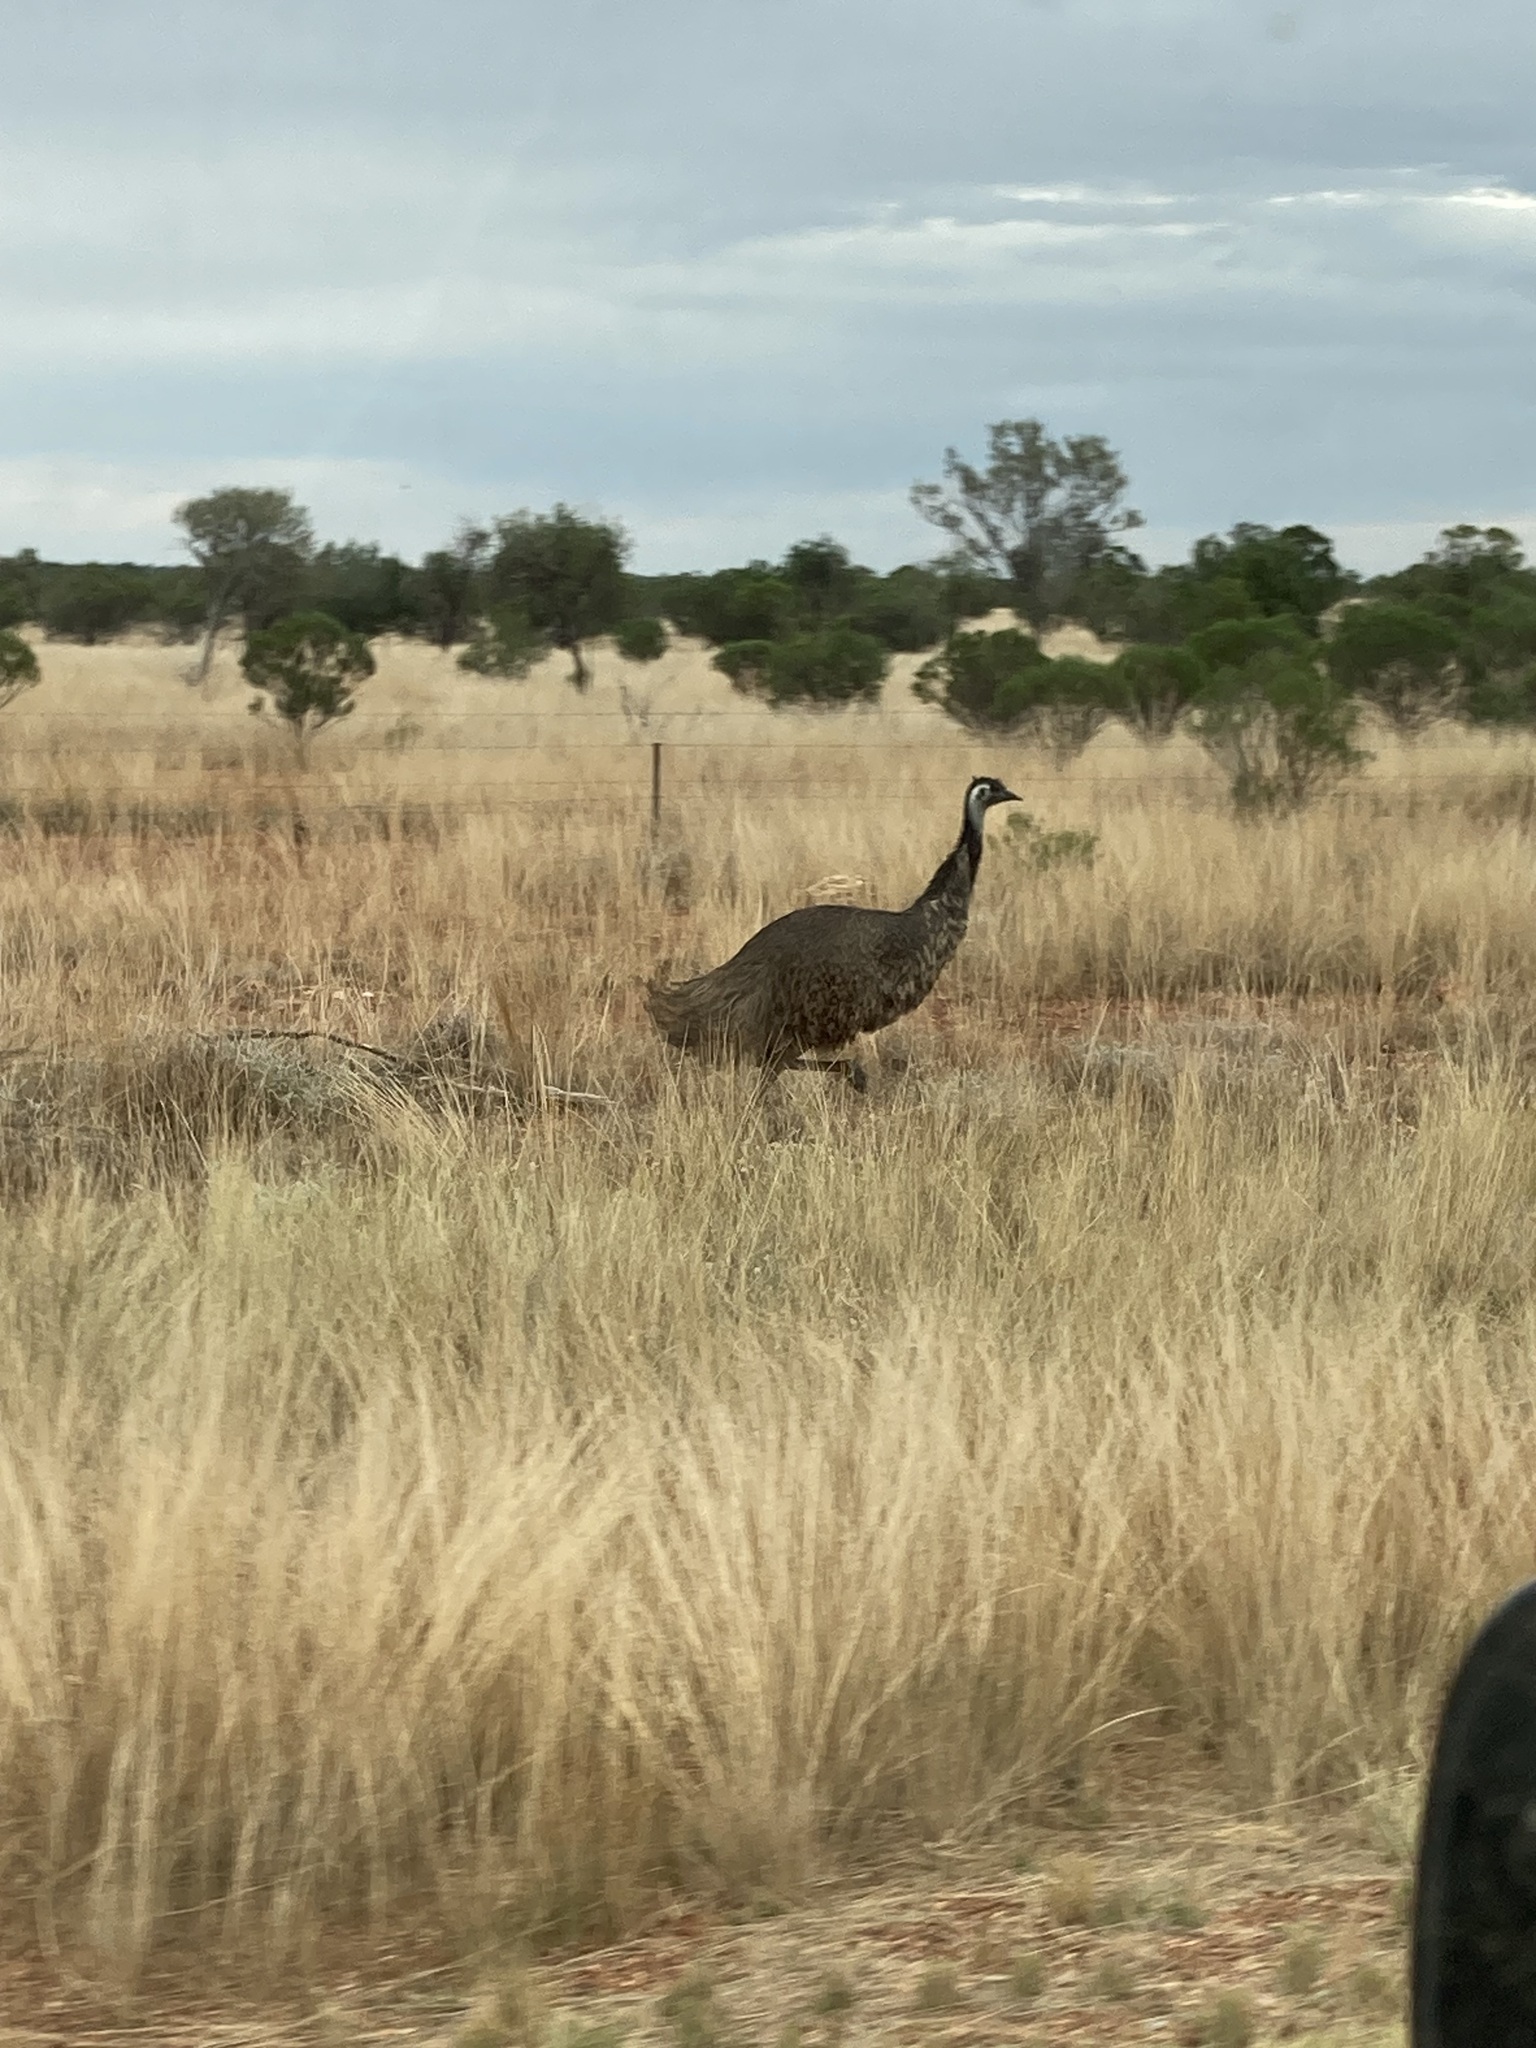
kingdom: Animalia
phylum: Chordata
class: Aves
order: Casuariiformes
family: Dromaiidae
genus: Dromaius
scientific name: Dromaius novaehollandiae
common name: Emu
